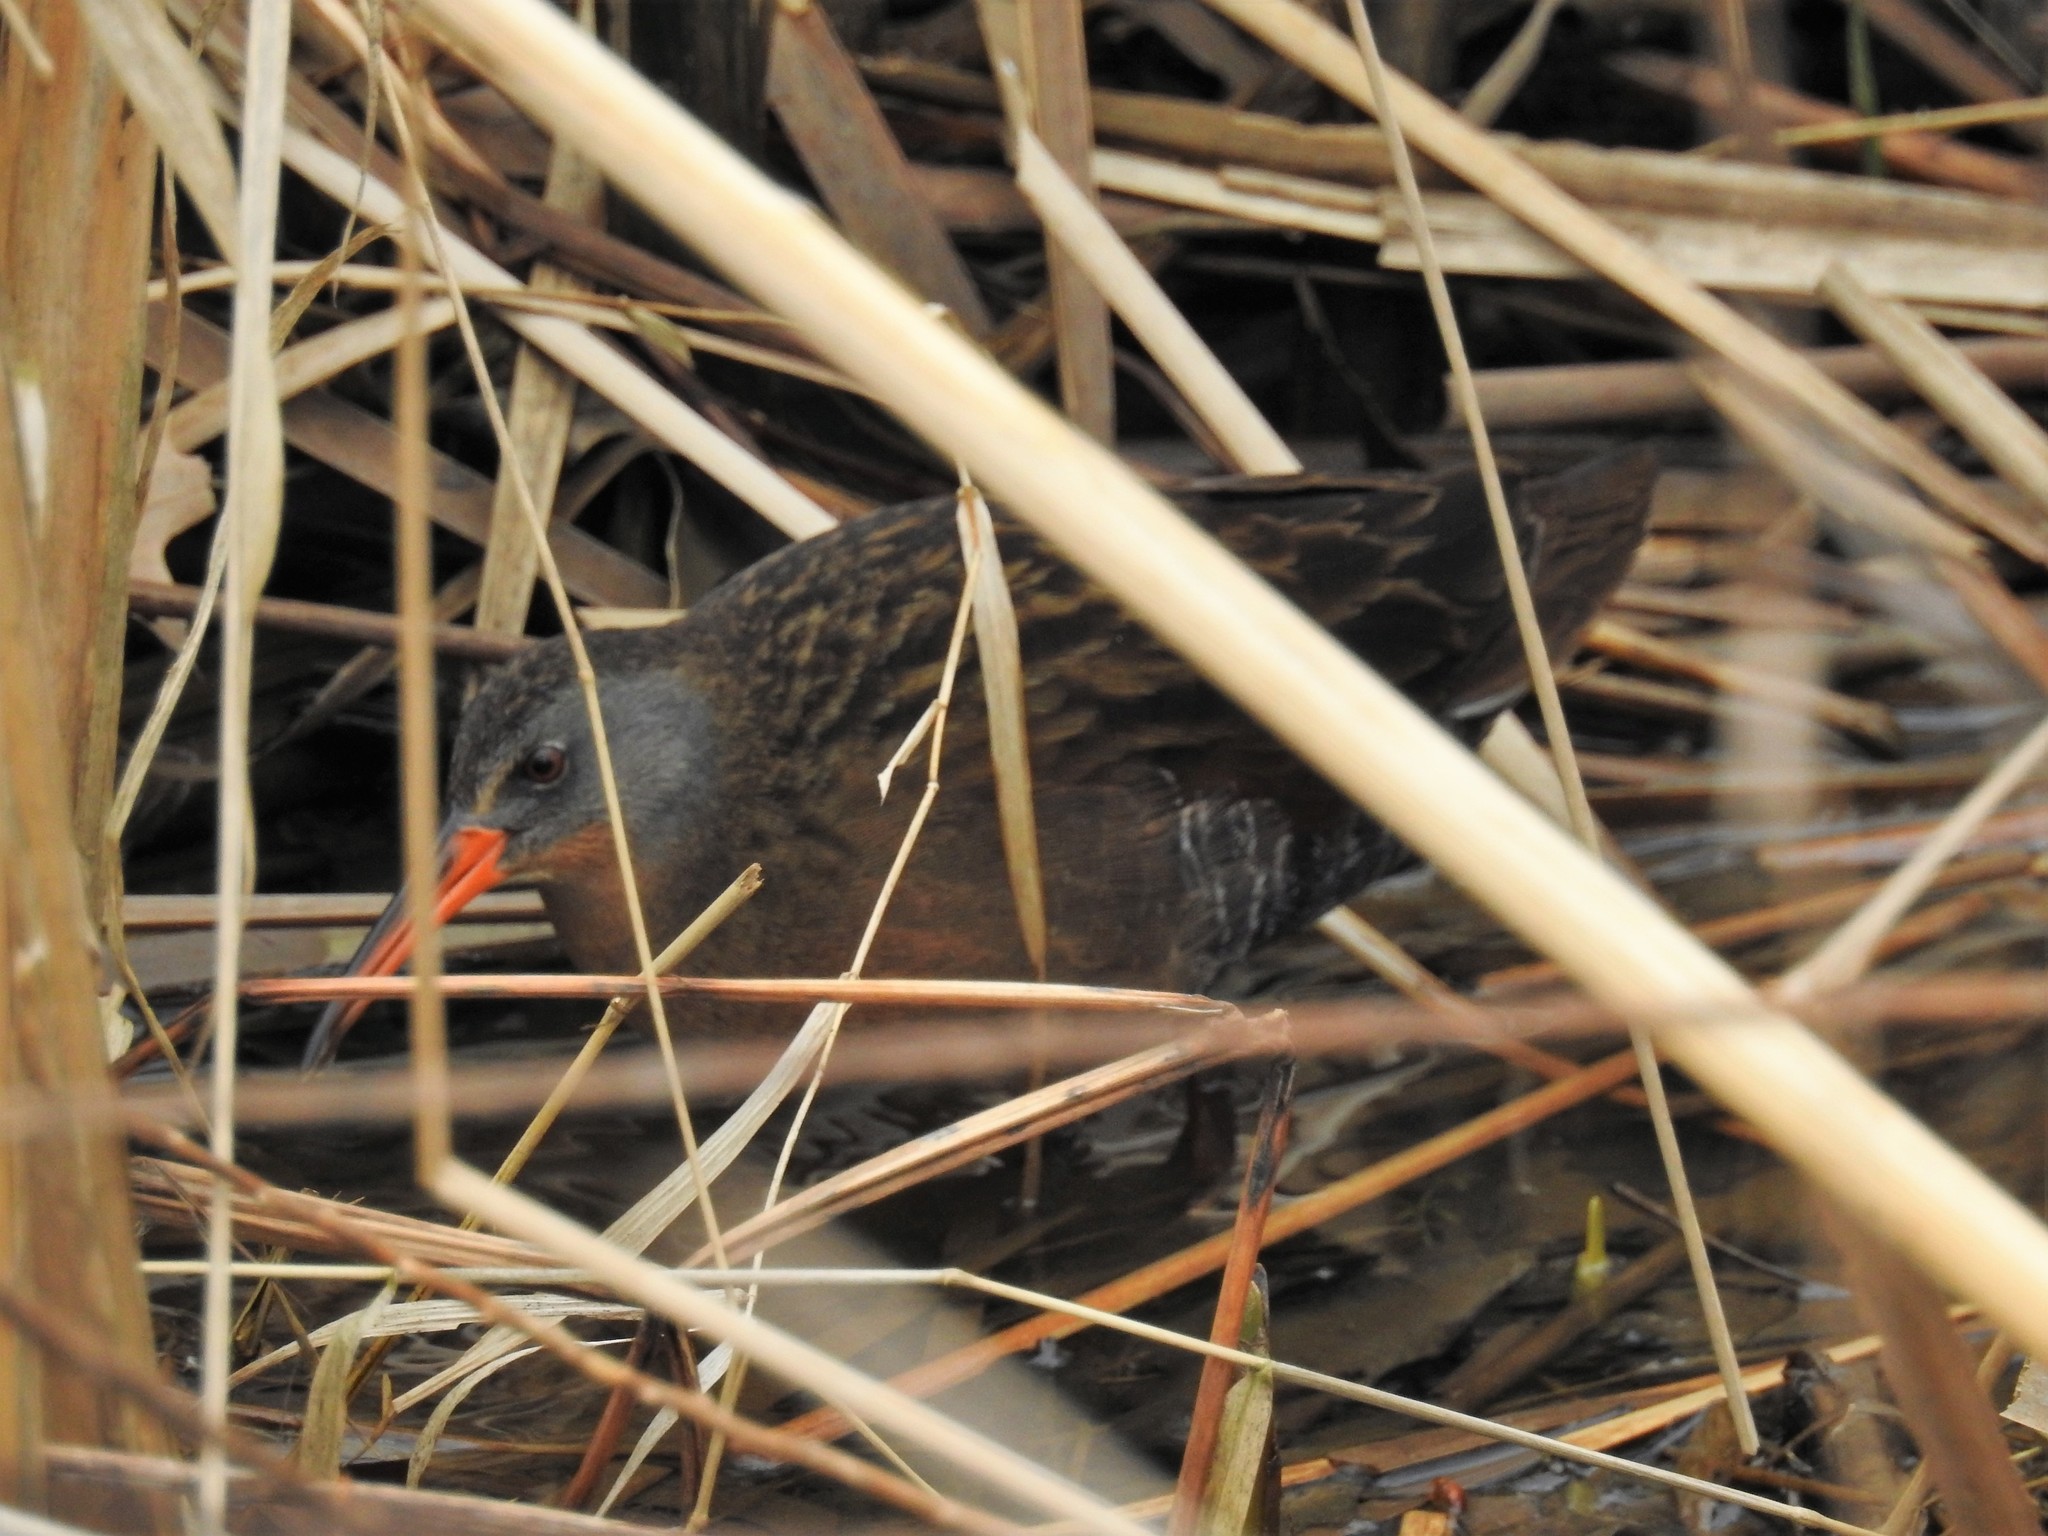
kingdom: Animalia
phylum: Chordata
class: Aves
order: Gruiformes
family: Rallidae
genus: Rallus
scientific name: Rallus limicola
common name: Virginia rail
